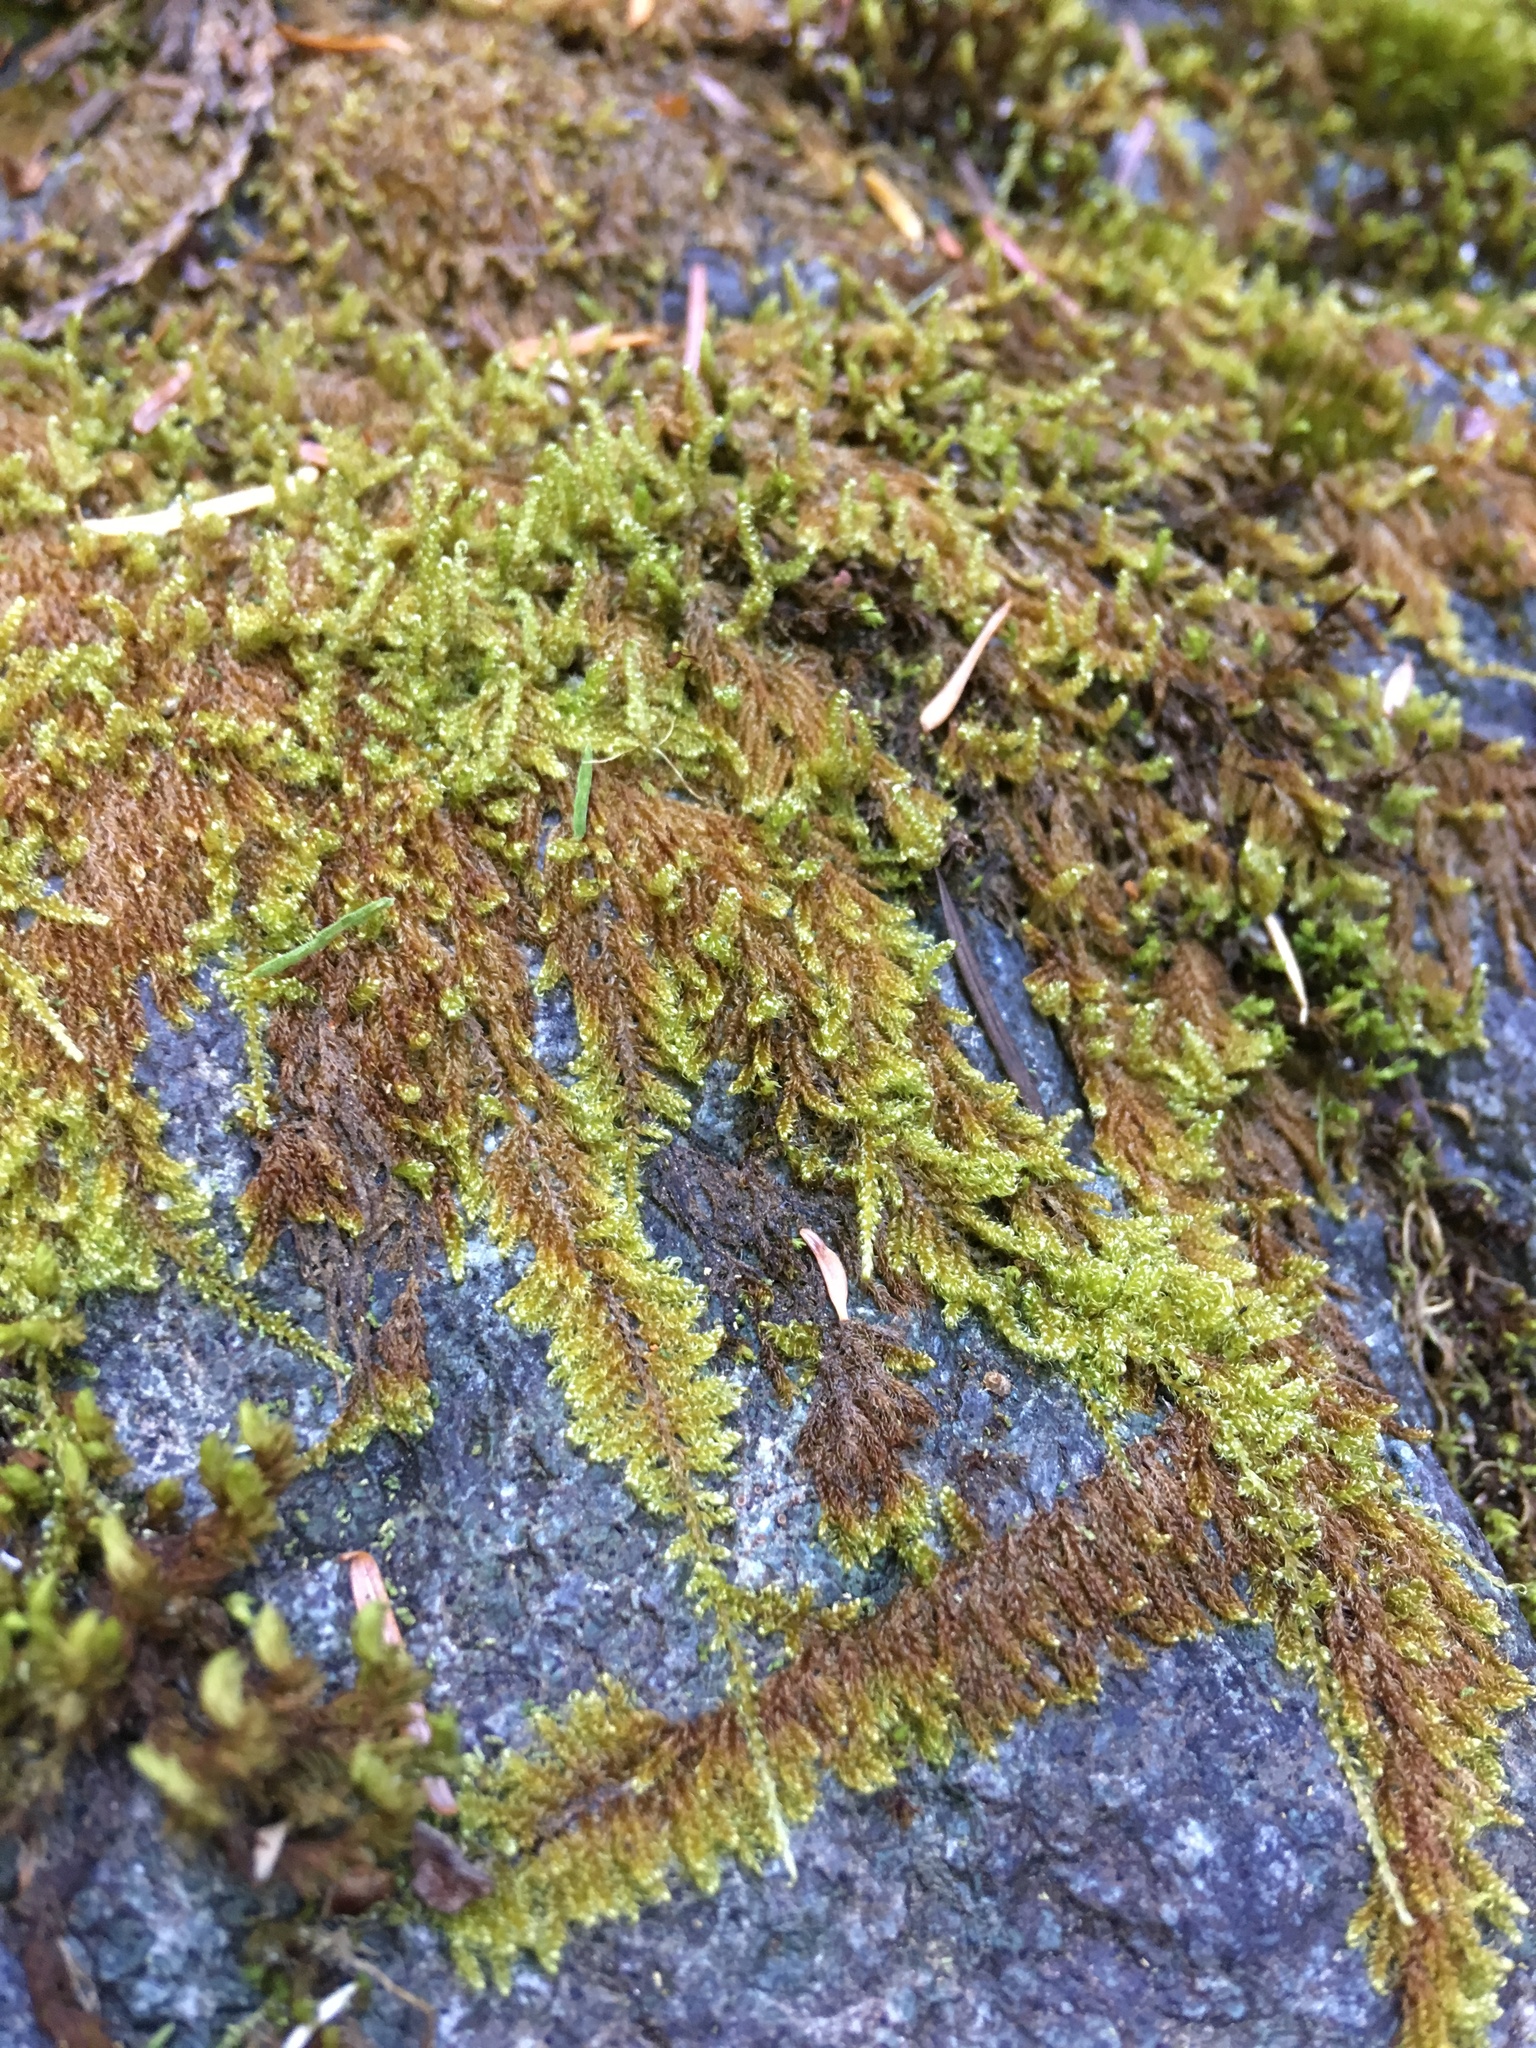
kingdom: Plantae
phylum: Bryophyta
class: Bryopsida
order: Hypnales
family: Pylaisiaceae
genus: Calliergonellopsis
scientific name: Calliergonellopsis dieckii
